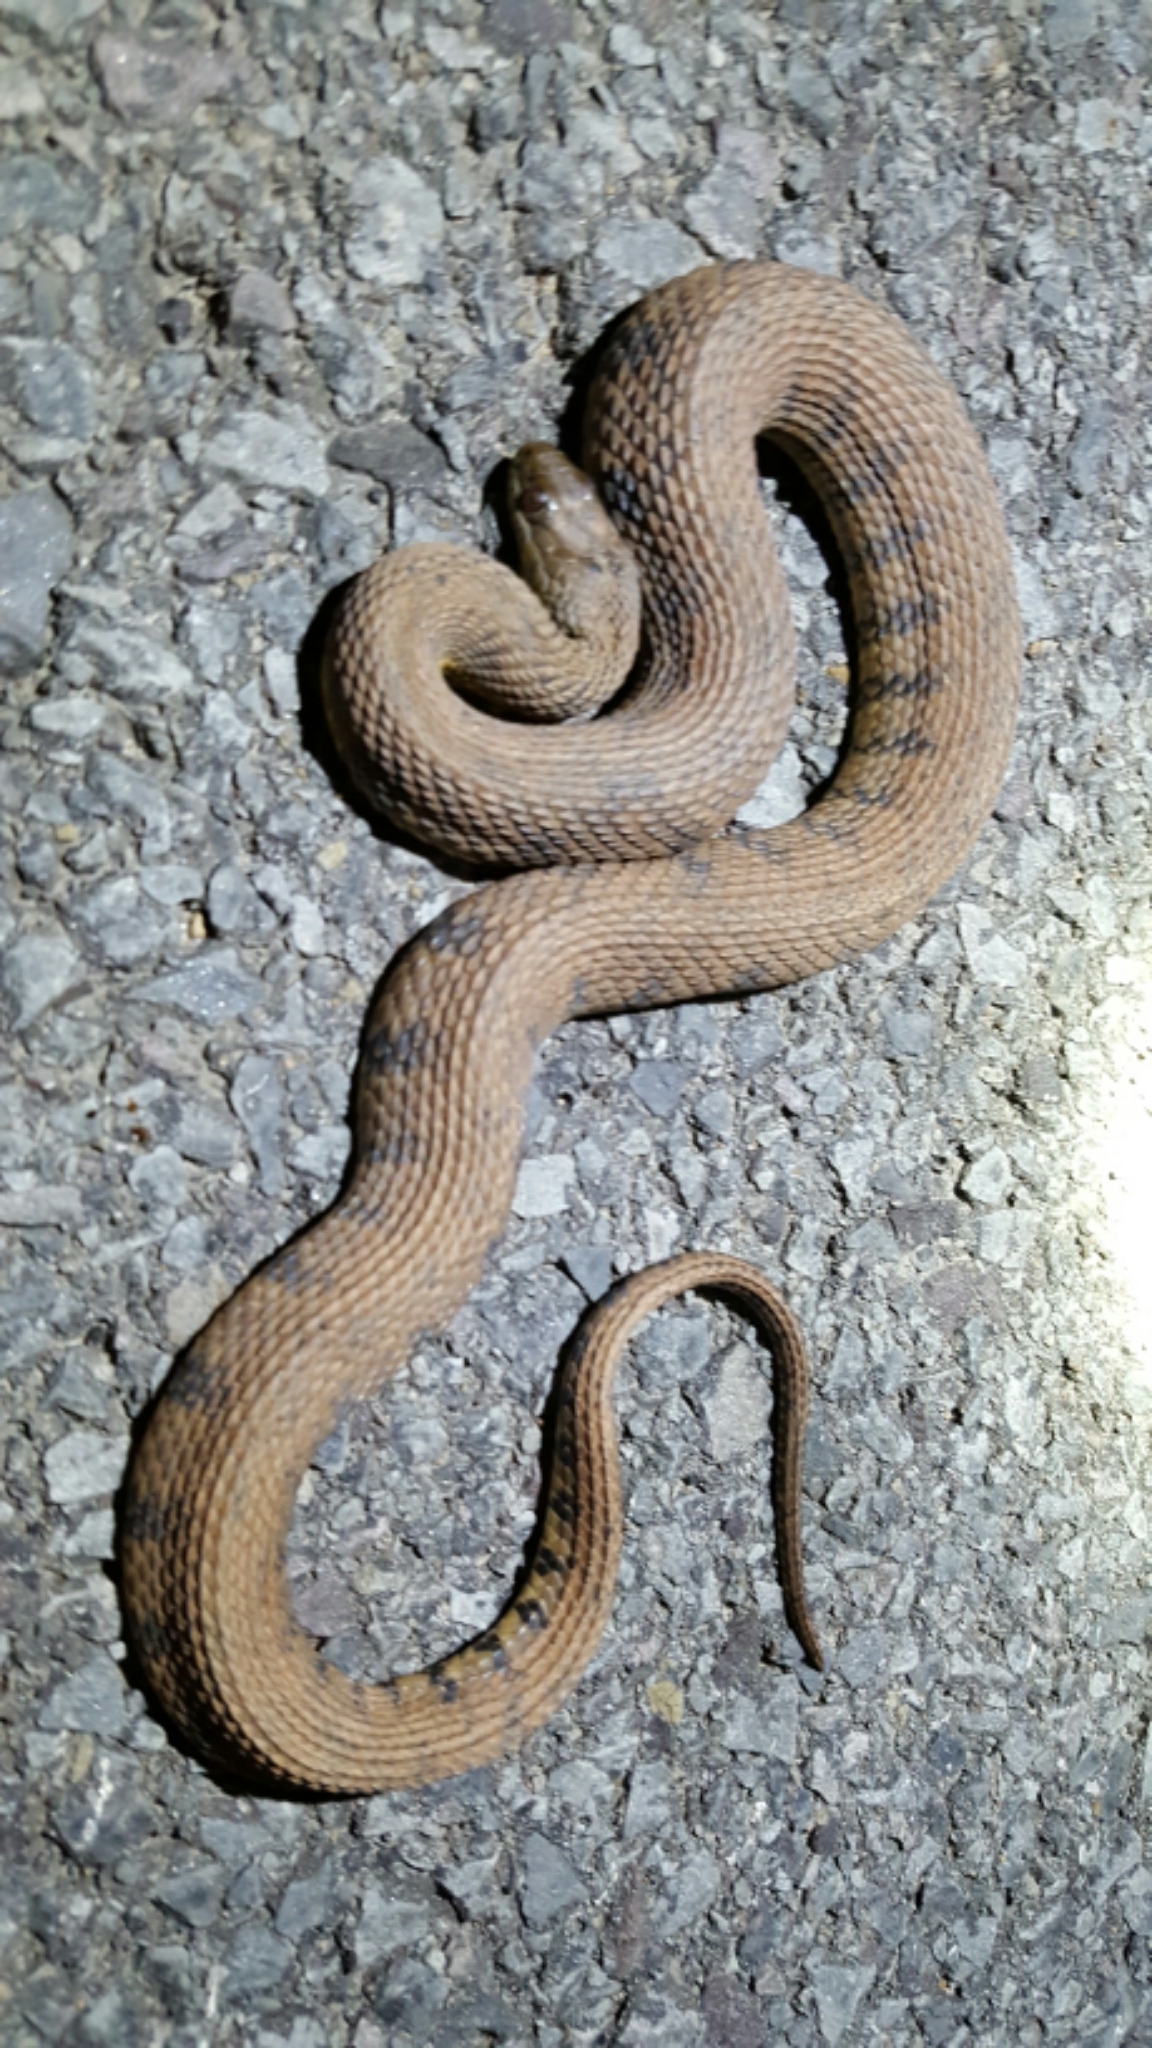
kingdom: Animalia
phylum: Chordata
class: Squamata
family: Colubridae
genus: Nerodia
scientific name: Nerodia rhombifer
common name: Diamondback water snake
